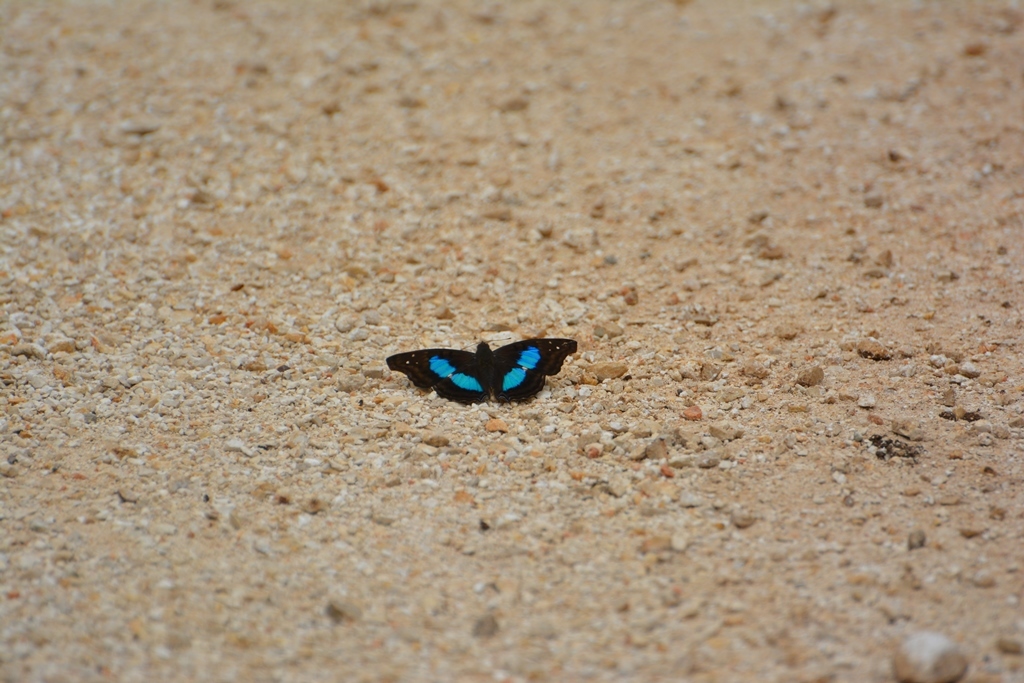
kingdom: Animalia
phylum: Arthropoda
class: Insecta
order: Lepidoptera
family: Nymphalidae
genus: Doxocopa
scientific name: Doxocopa laurentia
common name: Turquoise emperor
